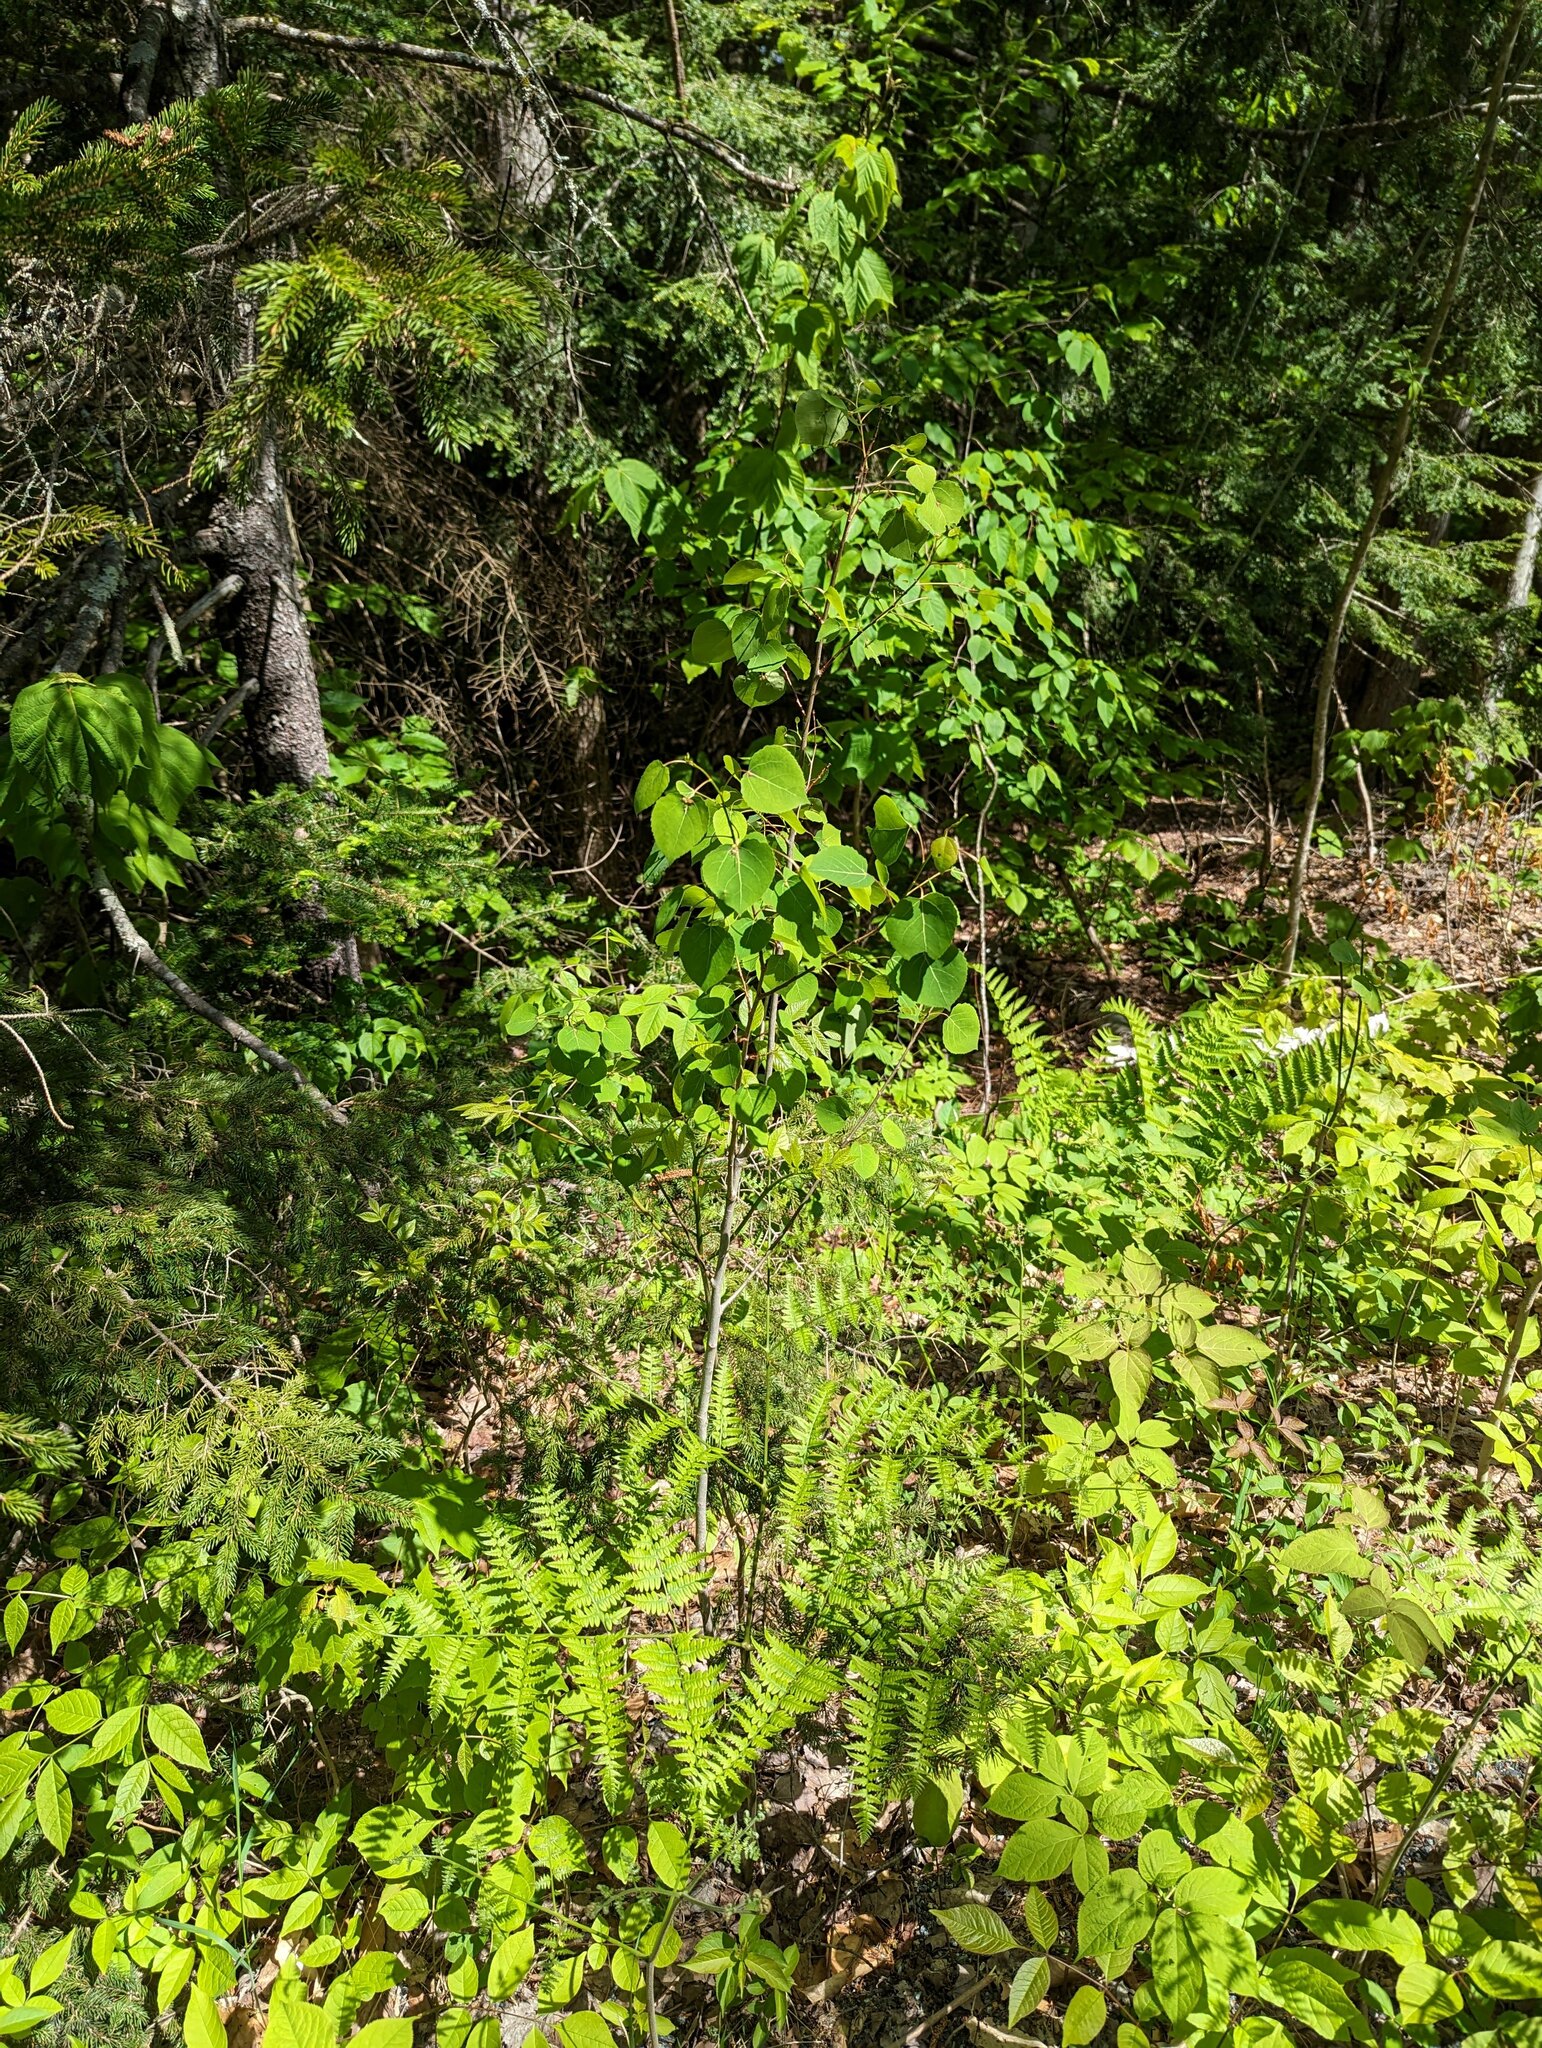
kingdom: Plantae
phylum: Tracheophyta
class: Magnoliopsida
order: Malpighiales
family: Salicaceae
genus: Populus
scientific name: Populus tremuloides
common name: Quaking aspen
